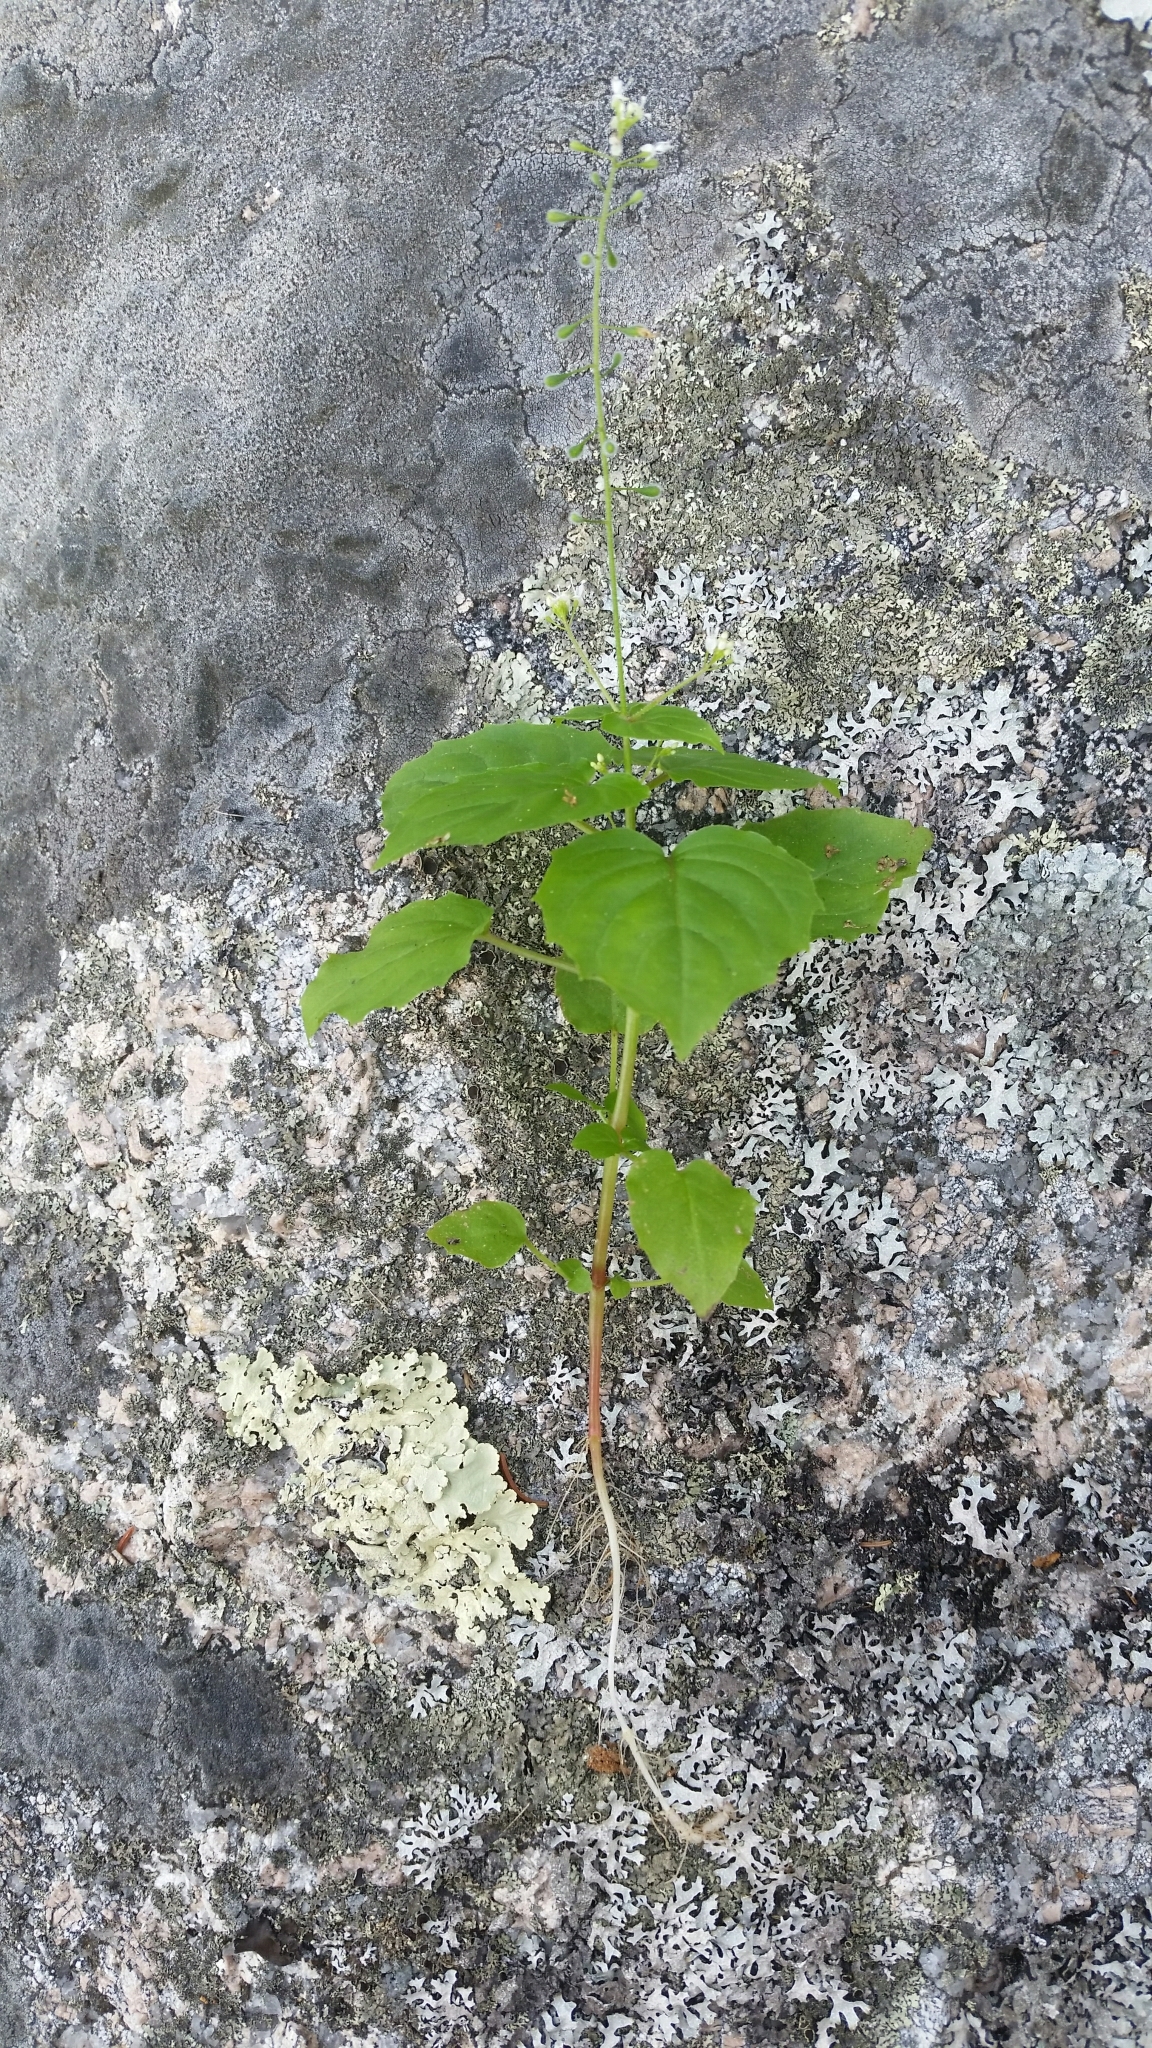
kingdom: Plantae
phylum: Tracheophyta
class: Magnoliopsida
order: Myrtales
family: Onagraceae
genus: Circaea
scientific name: Circaea canadensis
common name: Broad-leaved enchanter's nightshade
